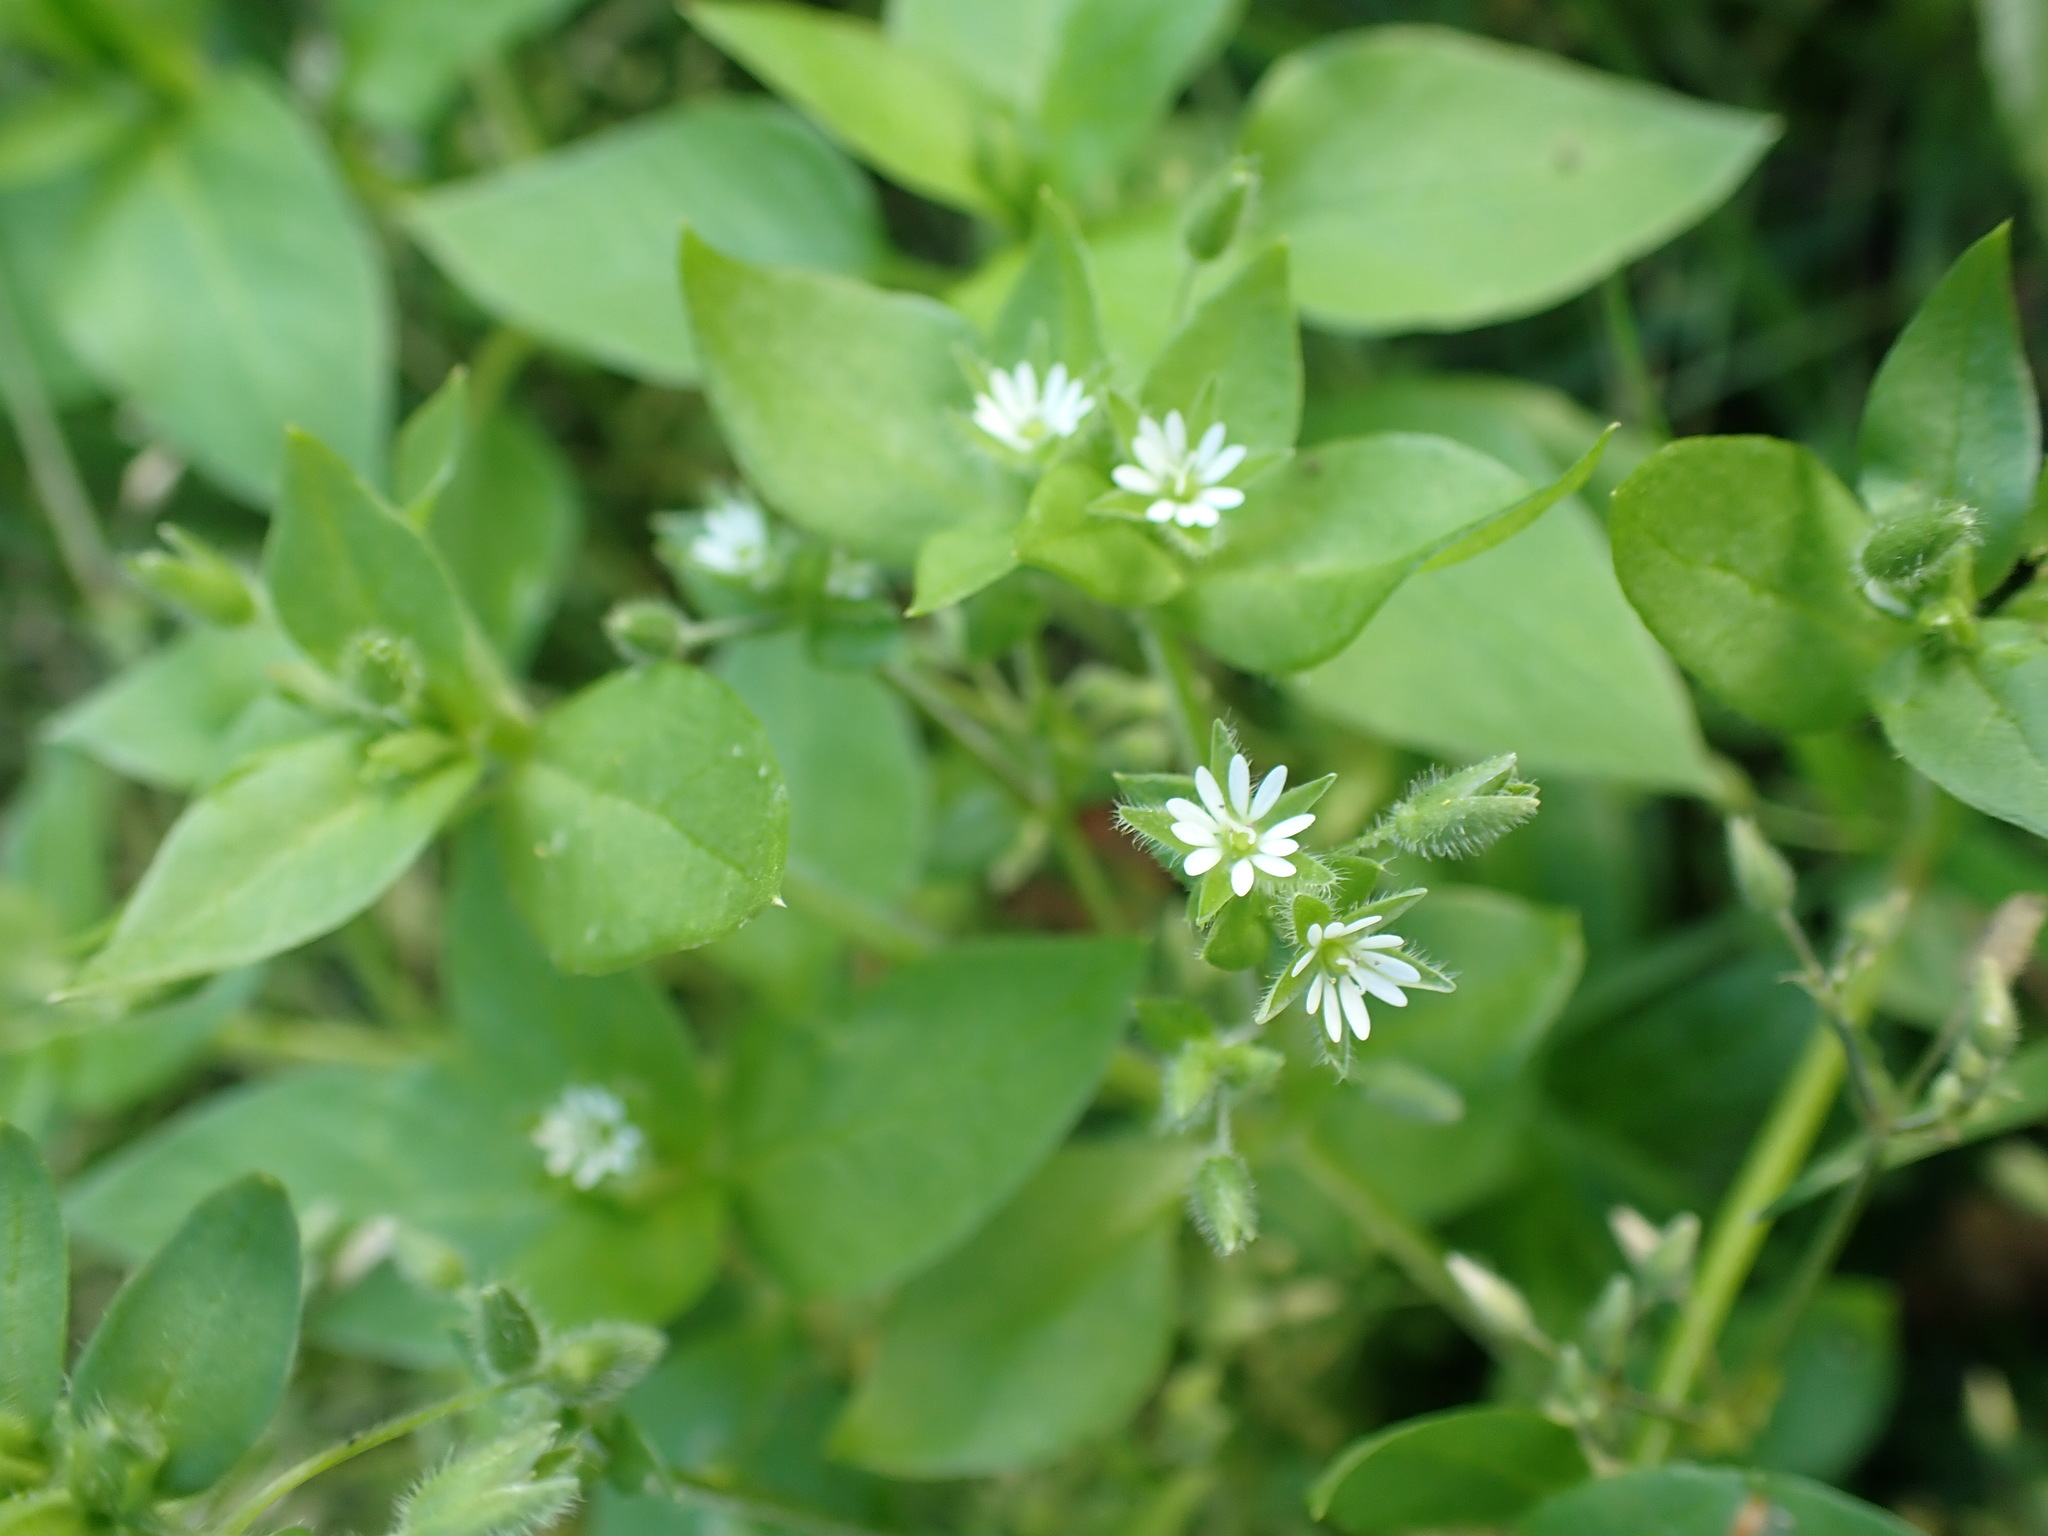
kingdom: Plantae
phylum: Tracheophyta
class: Magnoliopsida
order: Caryophyllales
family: Caryophyllaceae
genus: Stellaria
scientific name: Stellaria media
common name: Common chickweed
